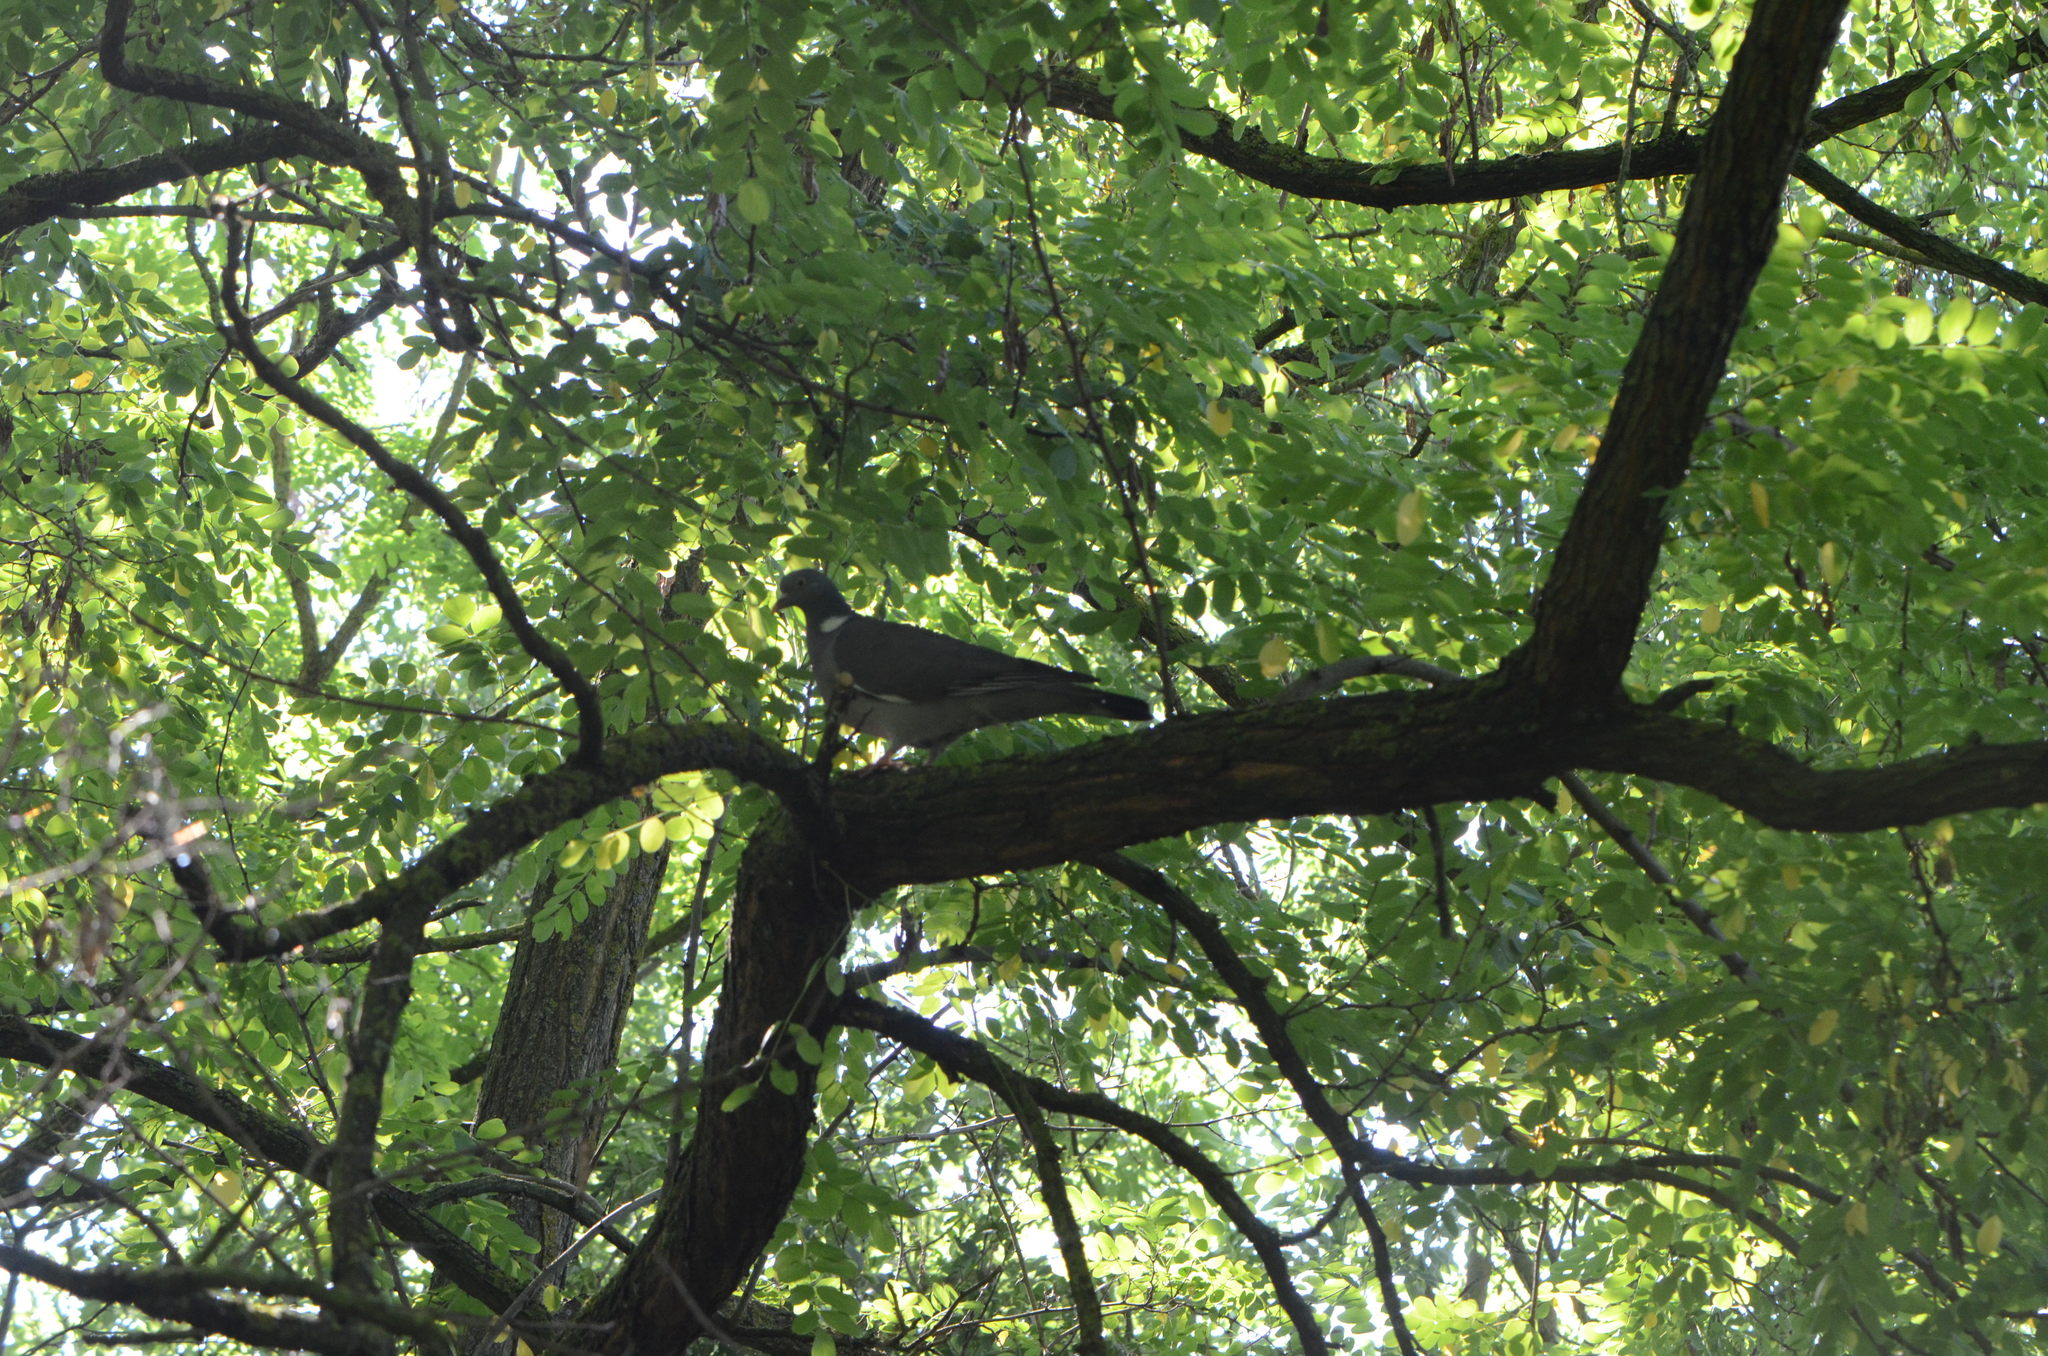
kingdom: Animalia
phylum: Chordata
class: Aves
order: Columbiformes
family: Columbidae
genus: Columba
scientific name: Columba palumbus
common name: Common wood pigeon
